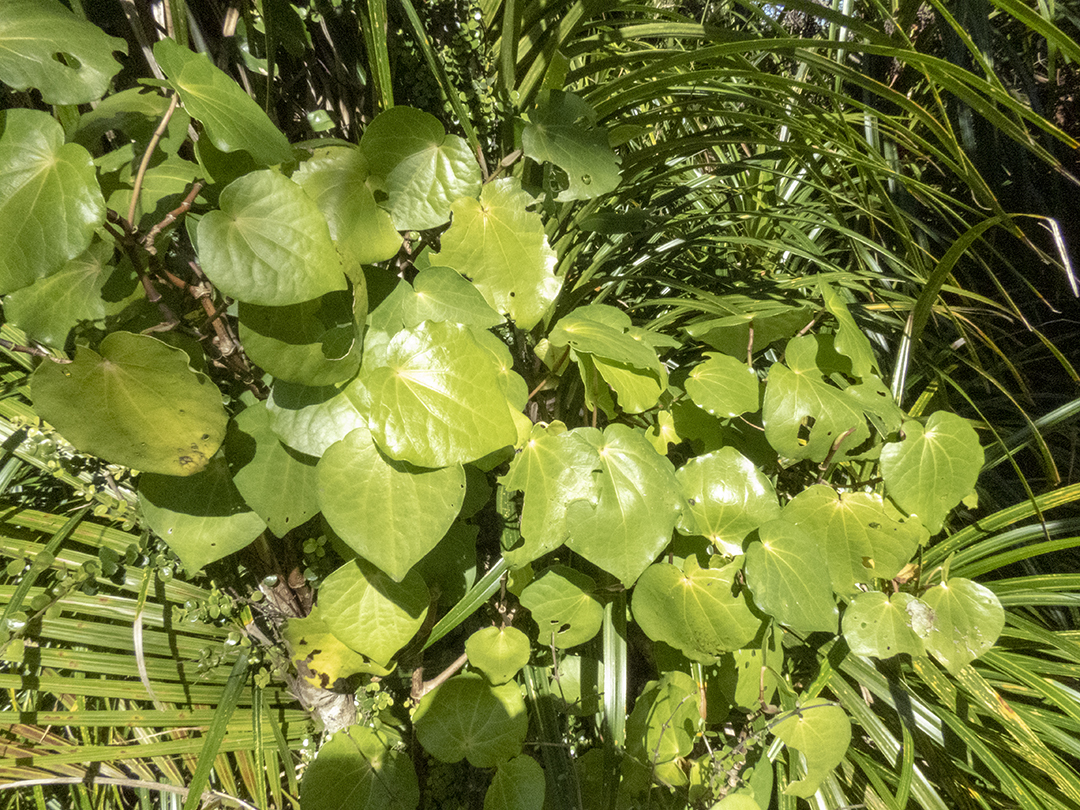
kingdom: Plantae
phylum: Tracheophyta
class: Magnoliopsida
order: Piperales
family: Piperaceae
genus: Macropiper
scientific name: Macropiper excelsum
